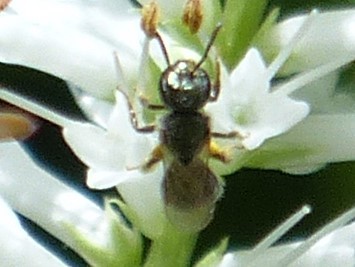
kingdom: Animalia
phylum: Arthropoda
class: Insecta
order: Hymenoptera
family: Halictidae
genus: Dialictus
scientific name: Dialictus
